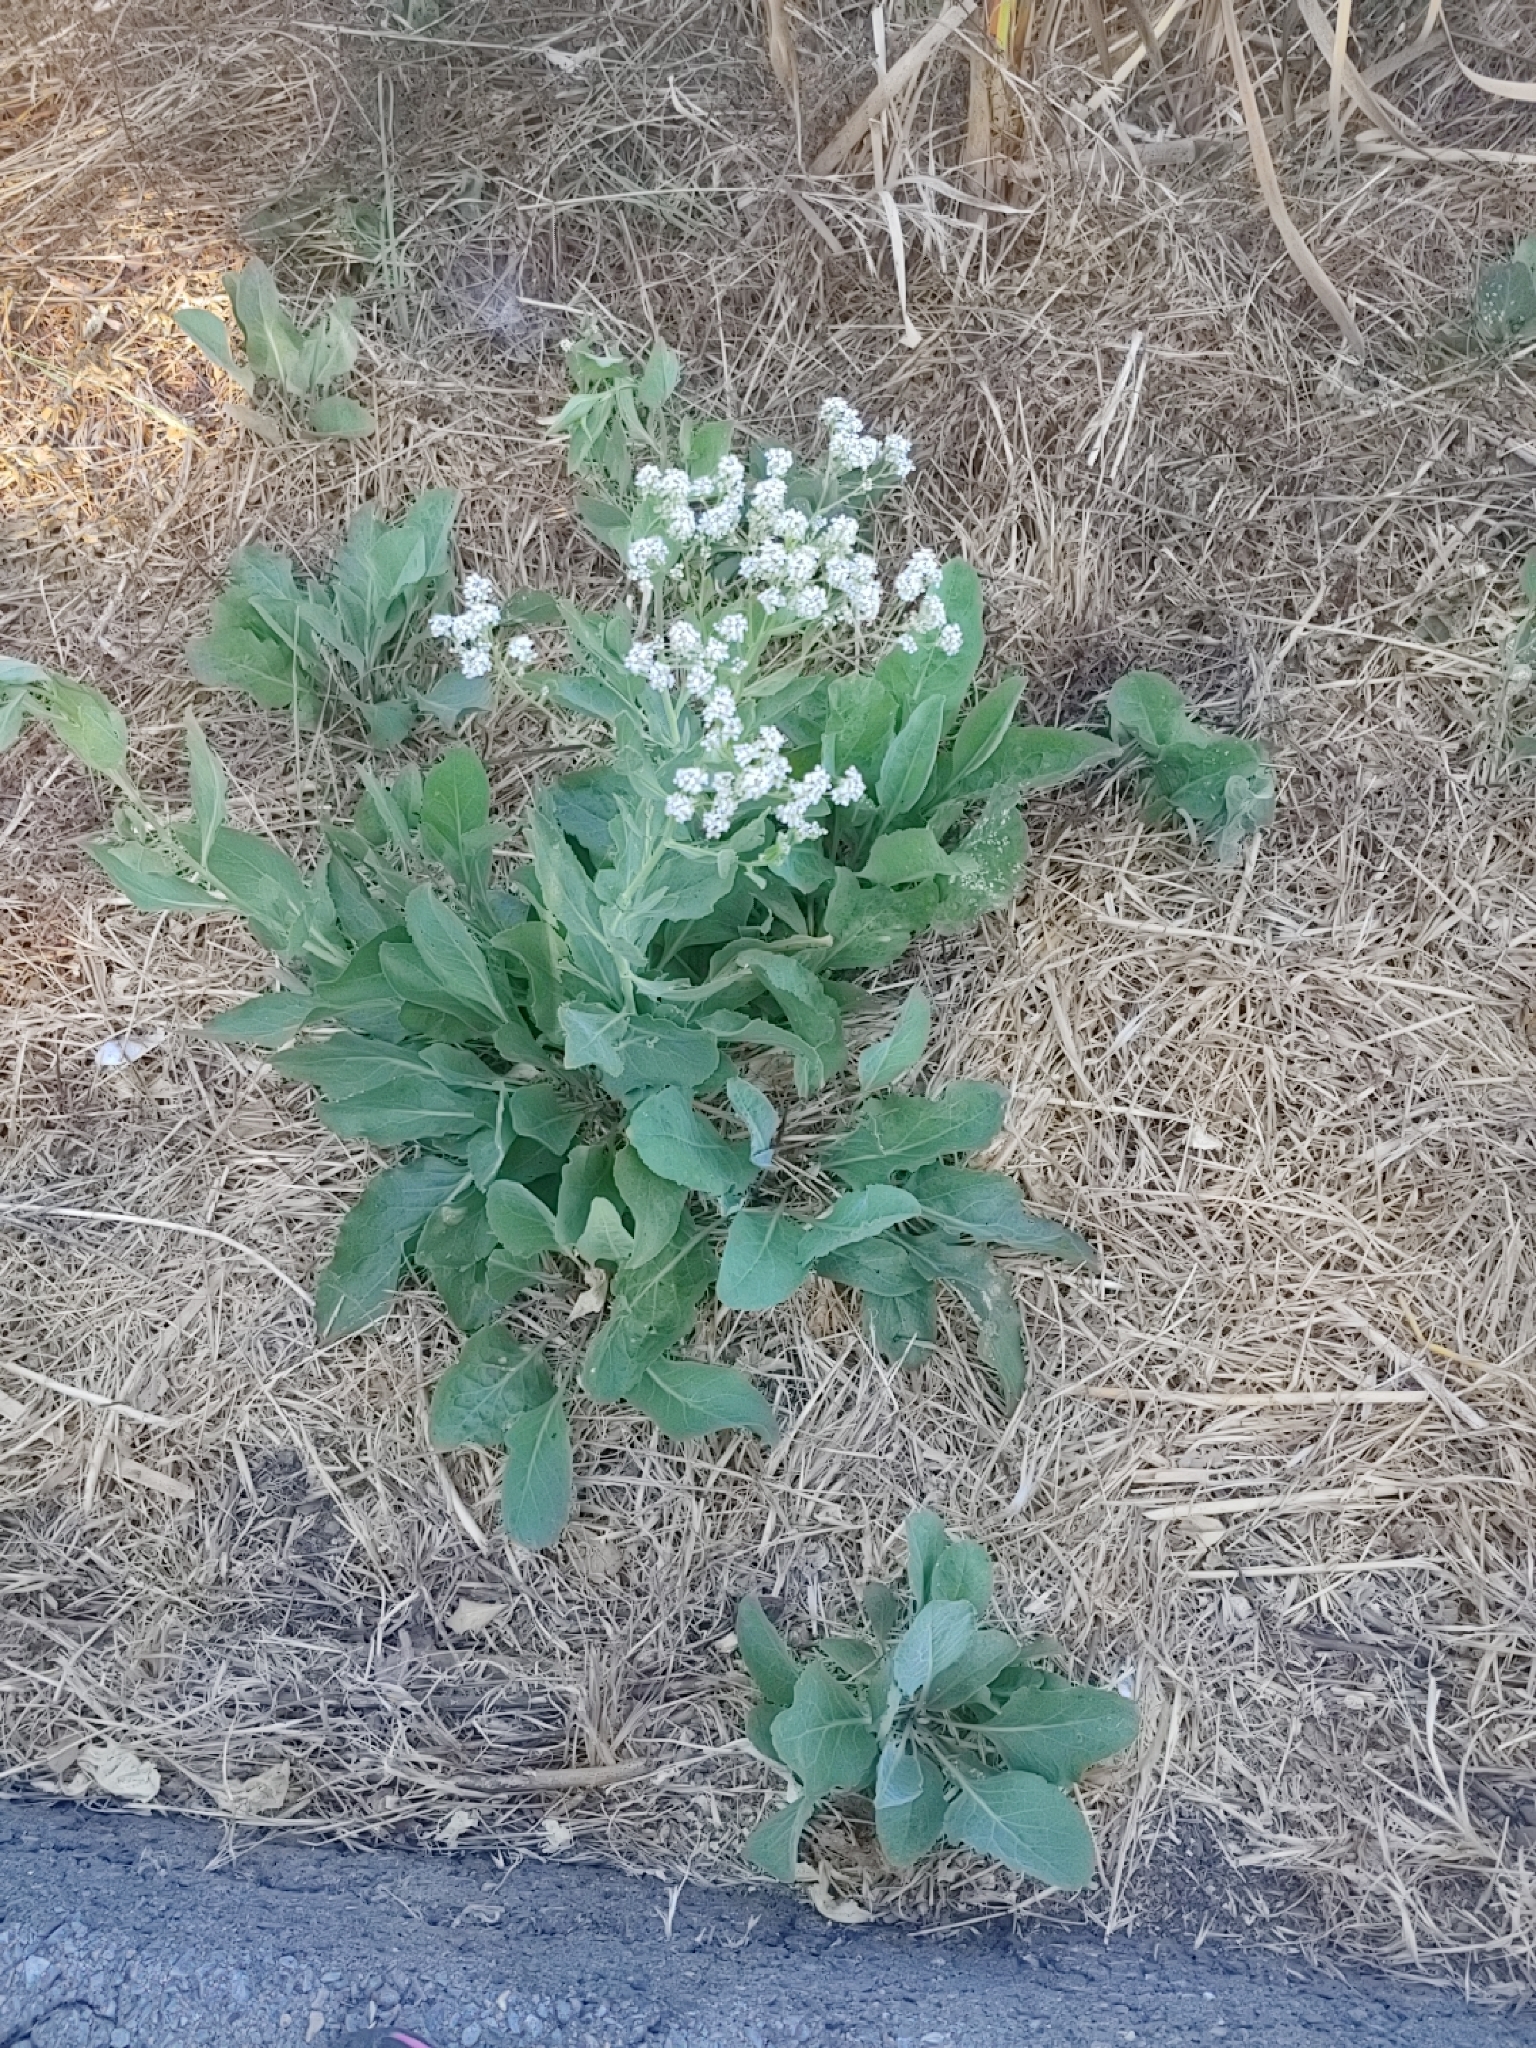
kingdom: Plantae
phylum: Tracheophyta
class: Magnoliopsida
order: Brassicales
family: Brassicaceae
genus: Lepidium
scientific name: Lepidium latifolium
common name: Dittander
